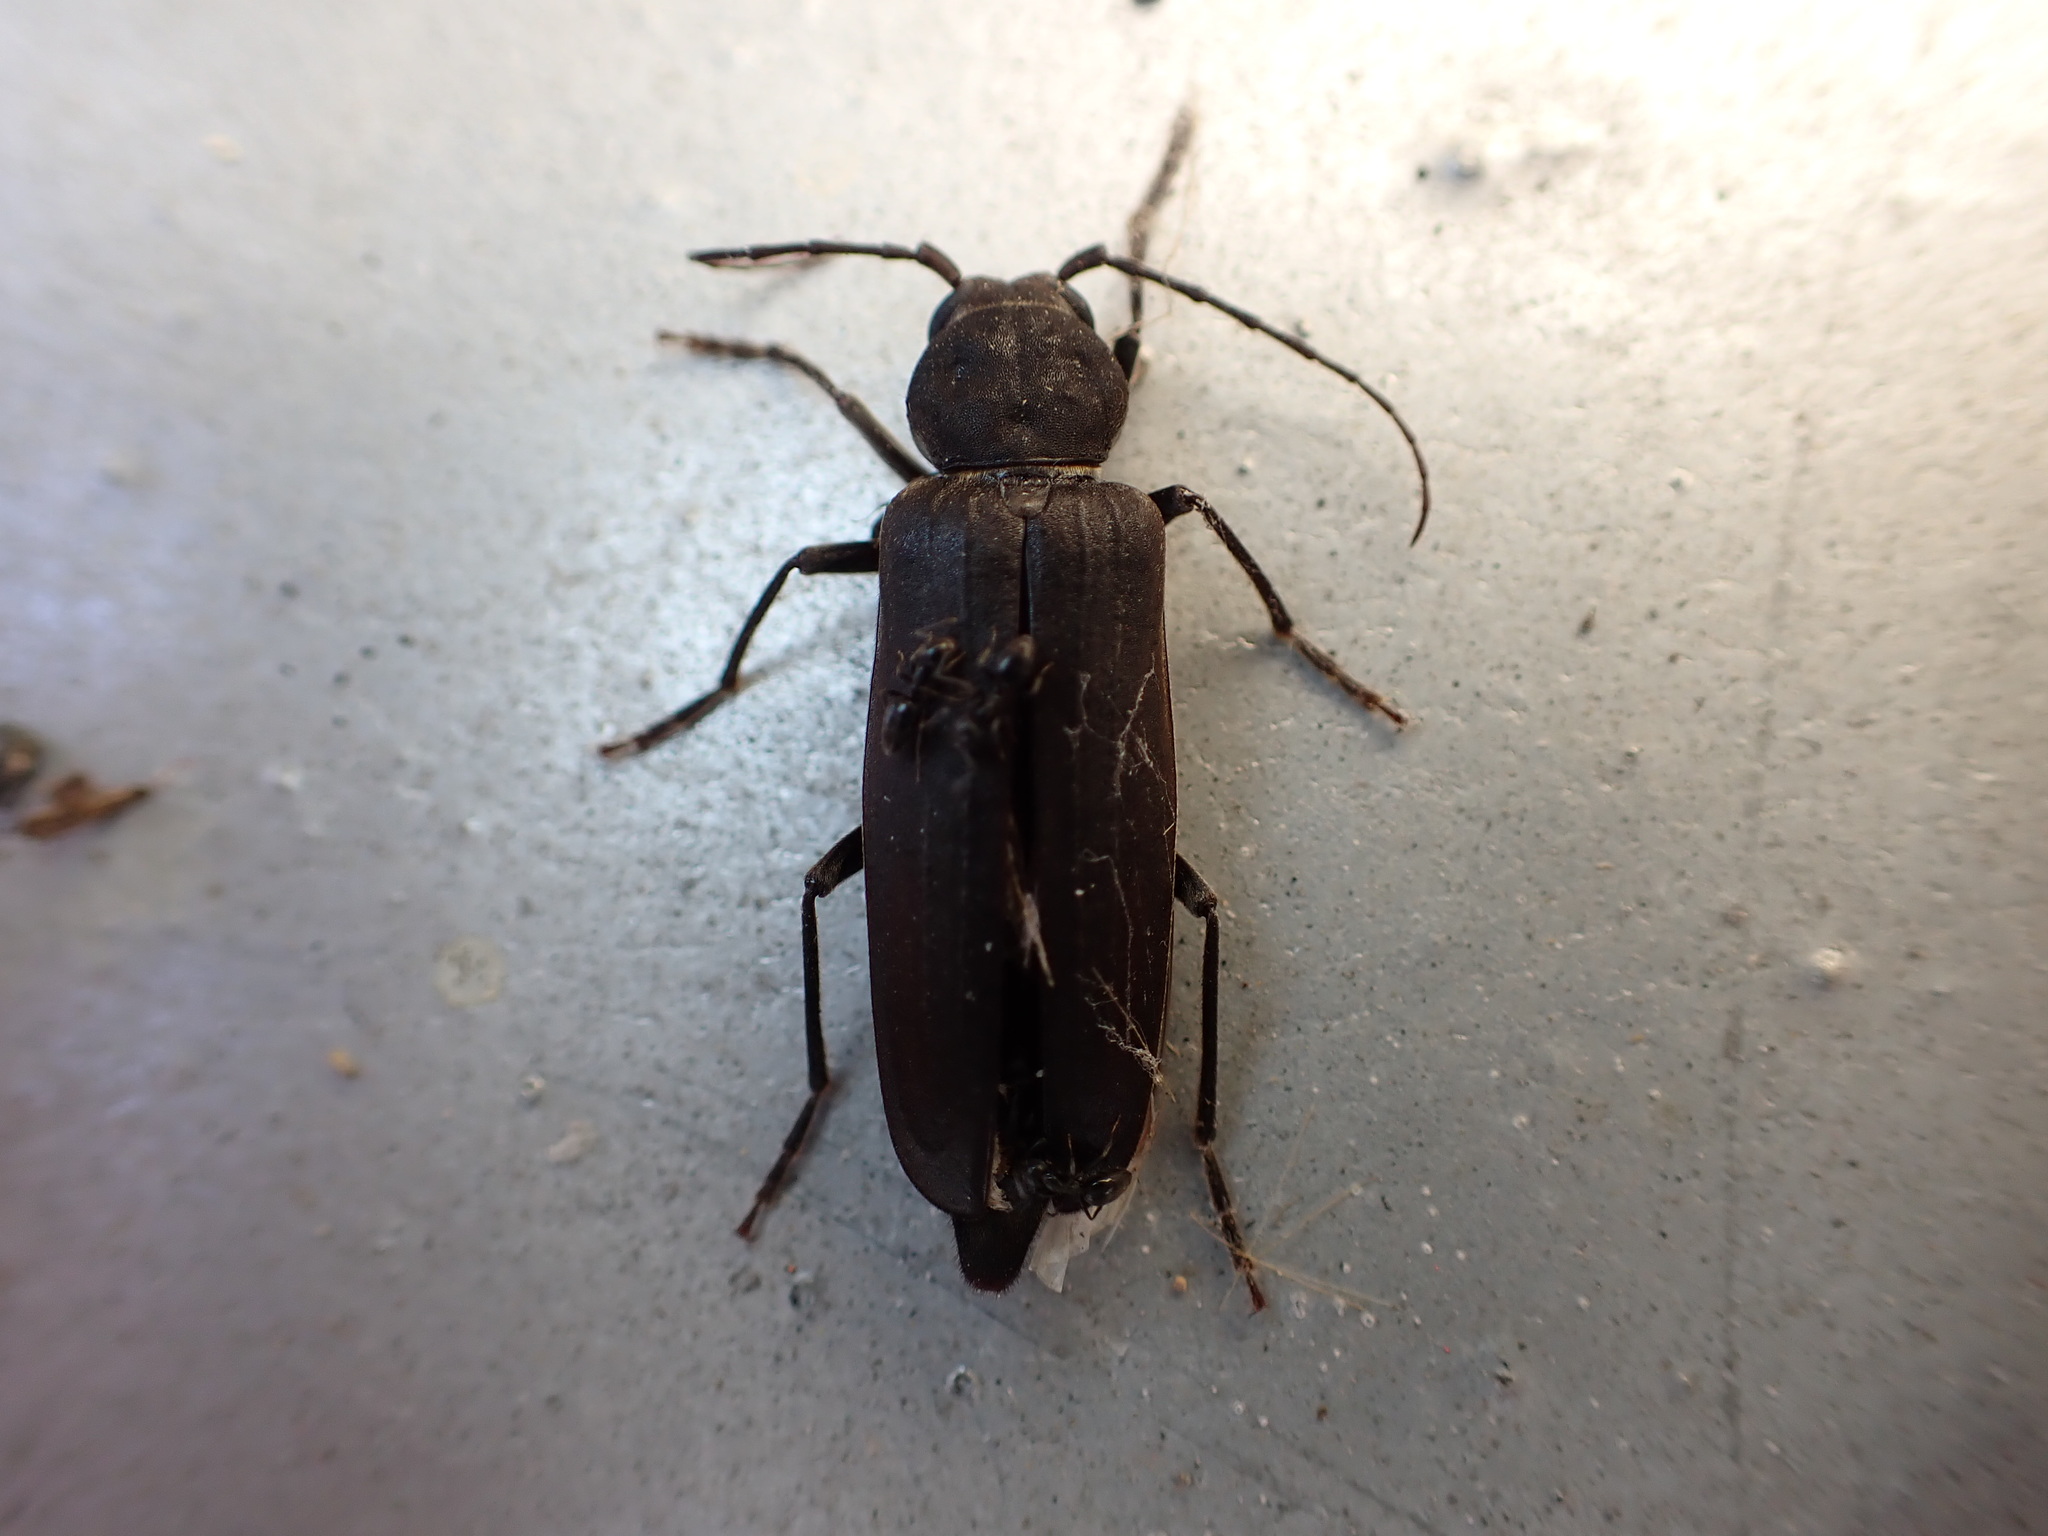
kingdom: Animalia
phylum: Arthropoda
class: Insecta
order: Coleoptera
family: Cerambycidae
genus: Arhopalus
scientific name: Arhopalus ferus
